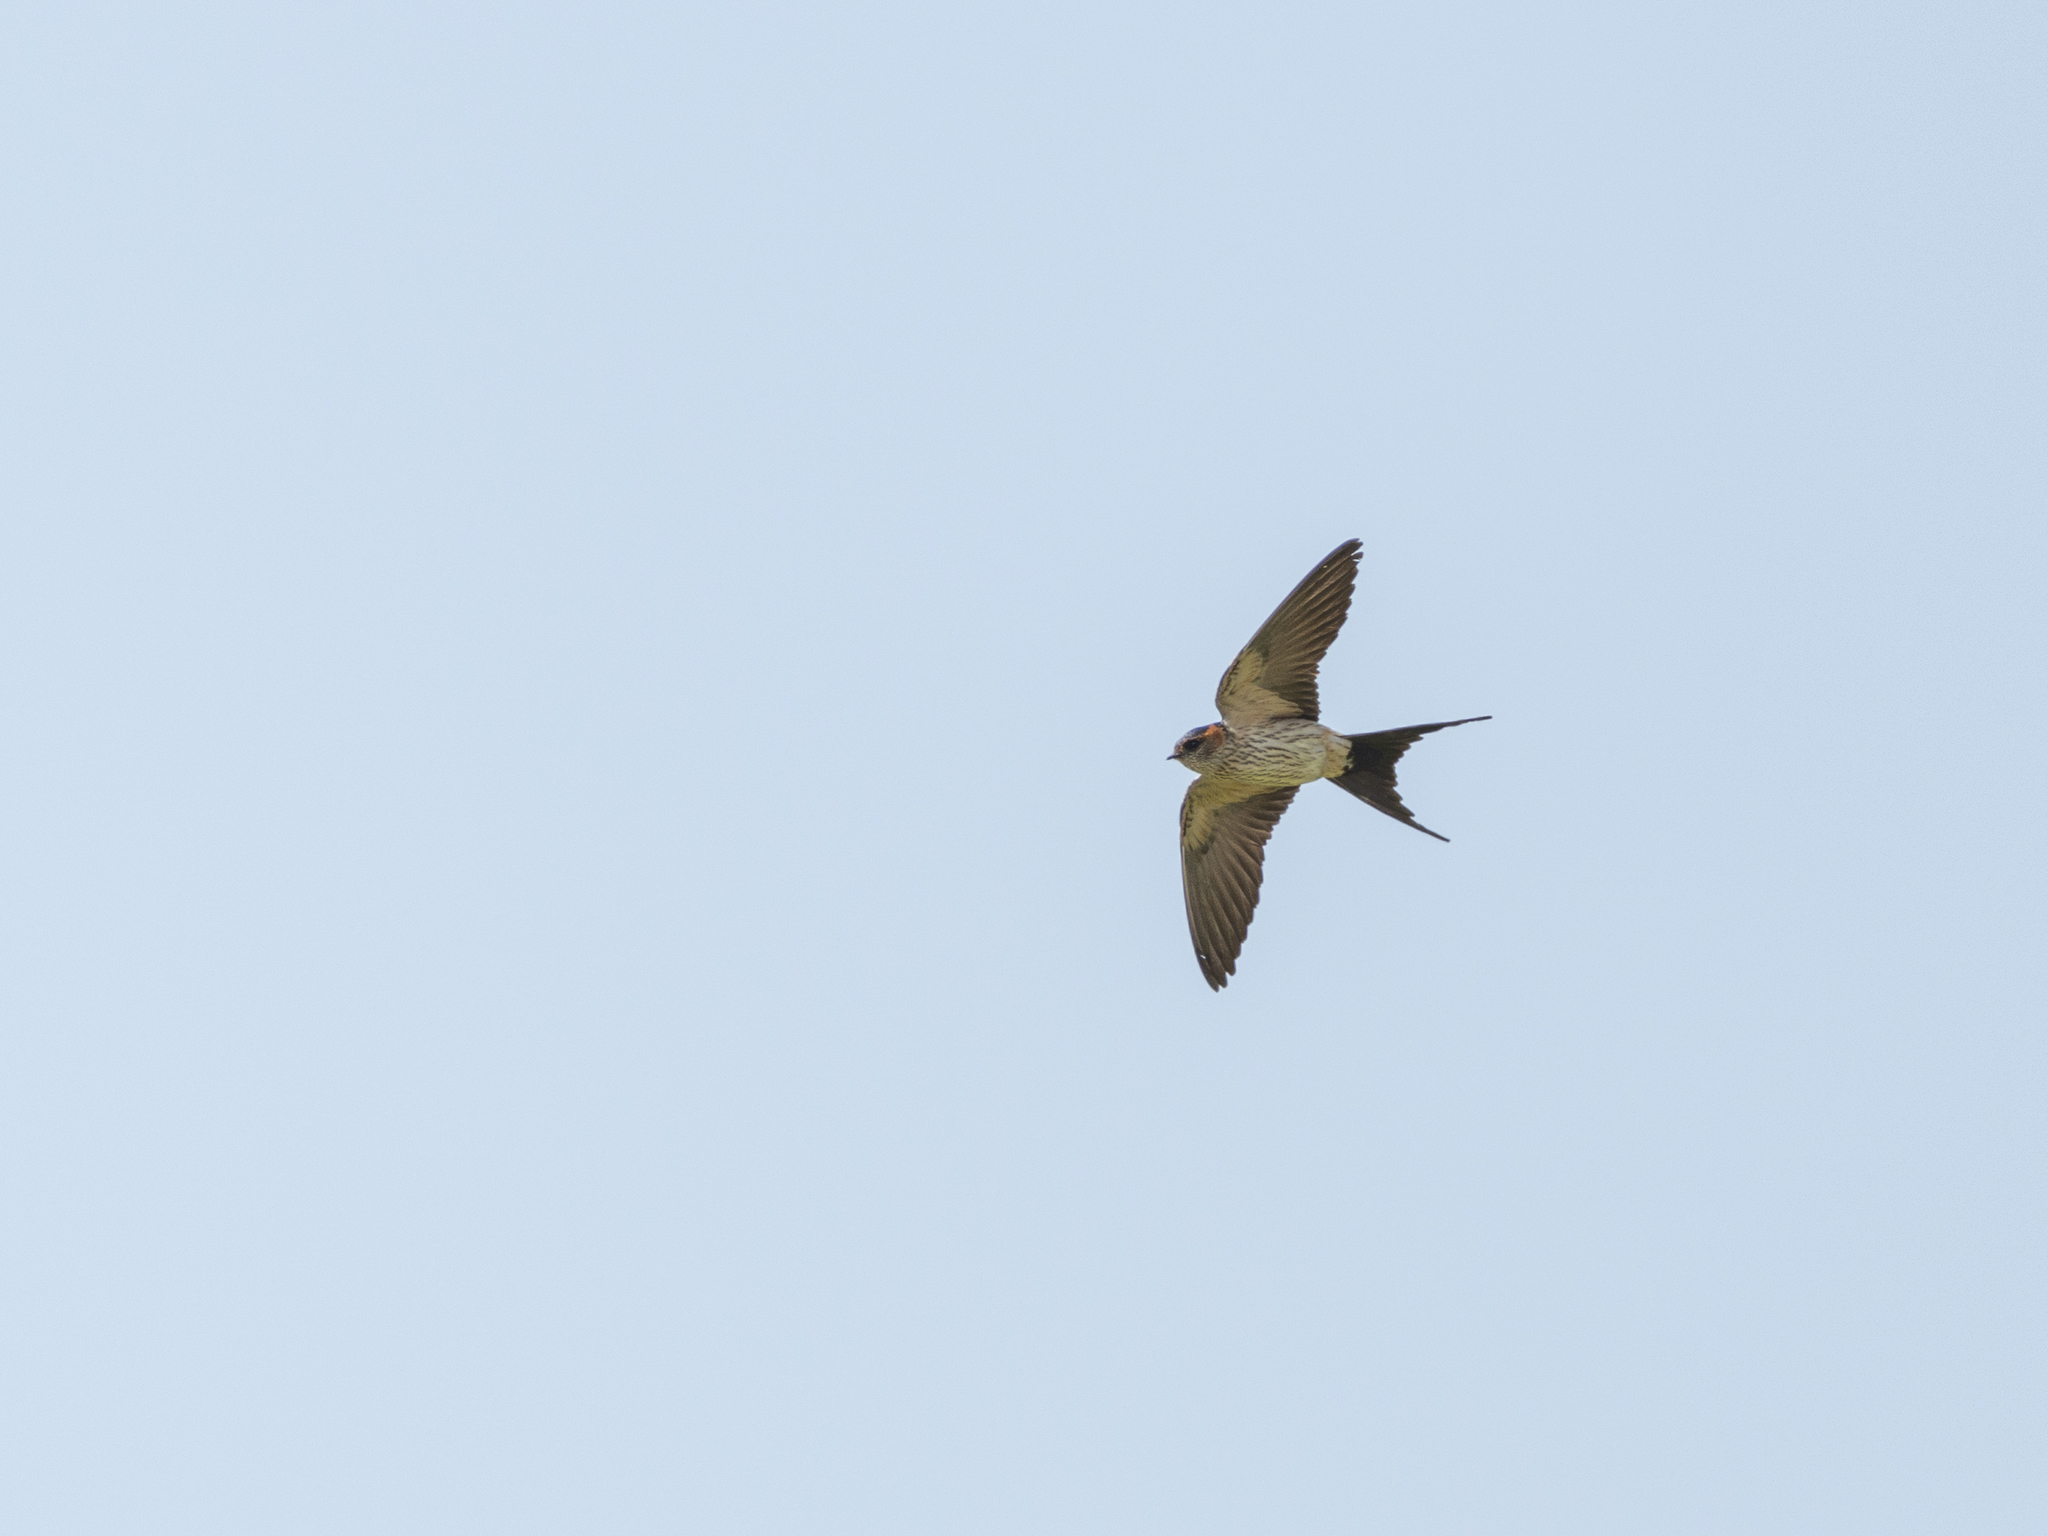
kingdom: Animalia
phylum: Chordata
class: Aves
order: Passeriformes
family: Hirundinidae
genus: Cecropis
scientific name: Cecropis daurica
